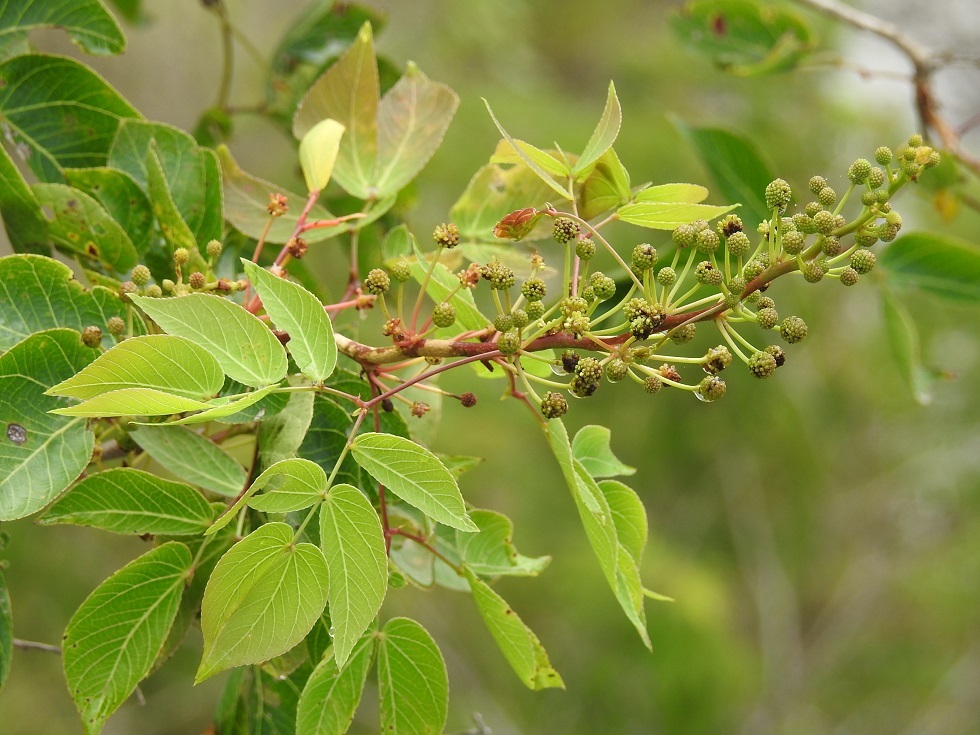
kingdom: Plantae
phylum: Tracheophyta
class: Magnoliopsida
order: Fabales
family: Fabaceae
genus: Mimosa
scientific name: Mimosa lactiflua
